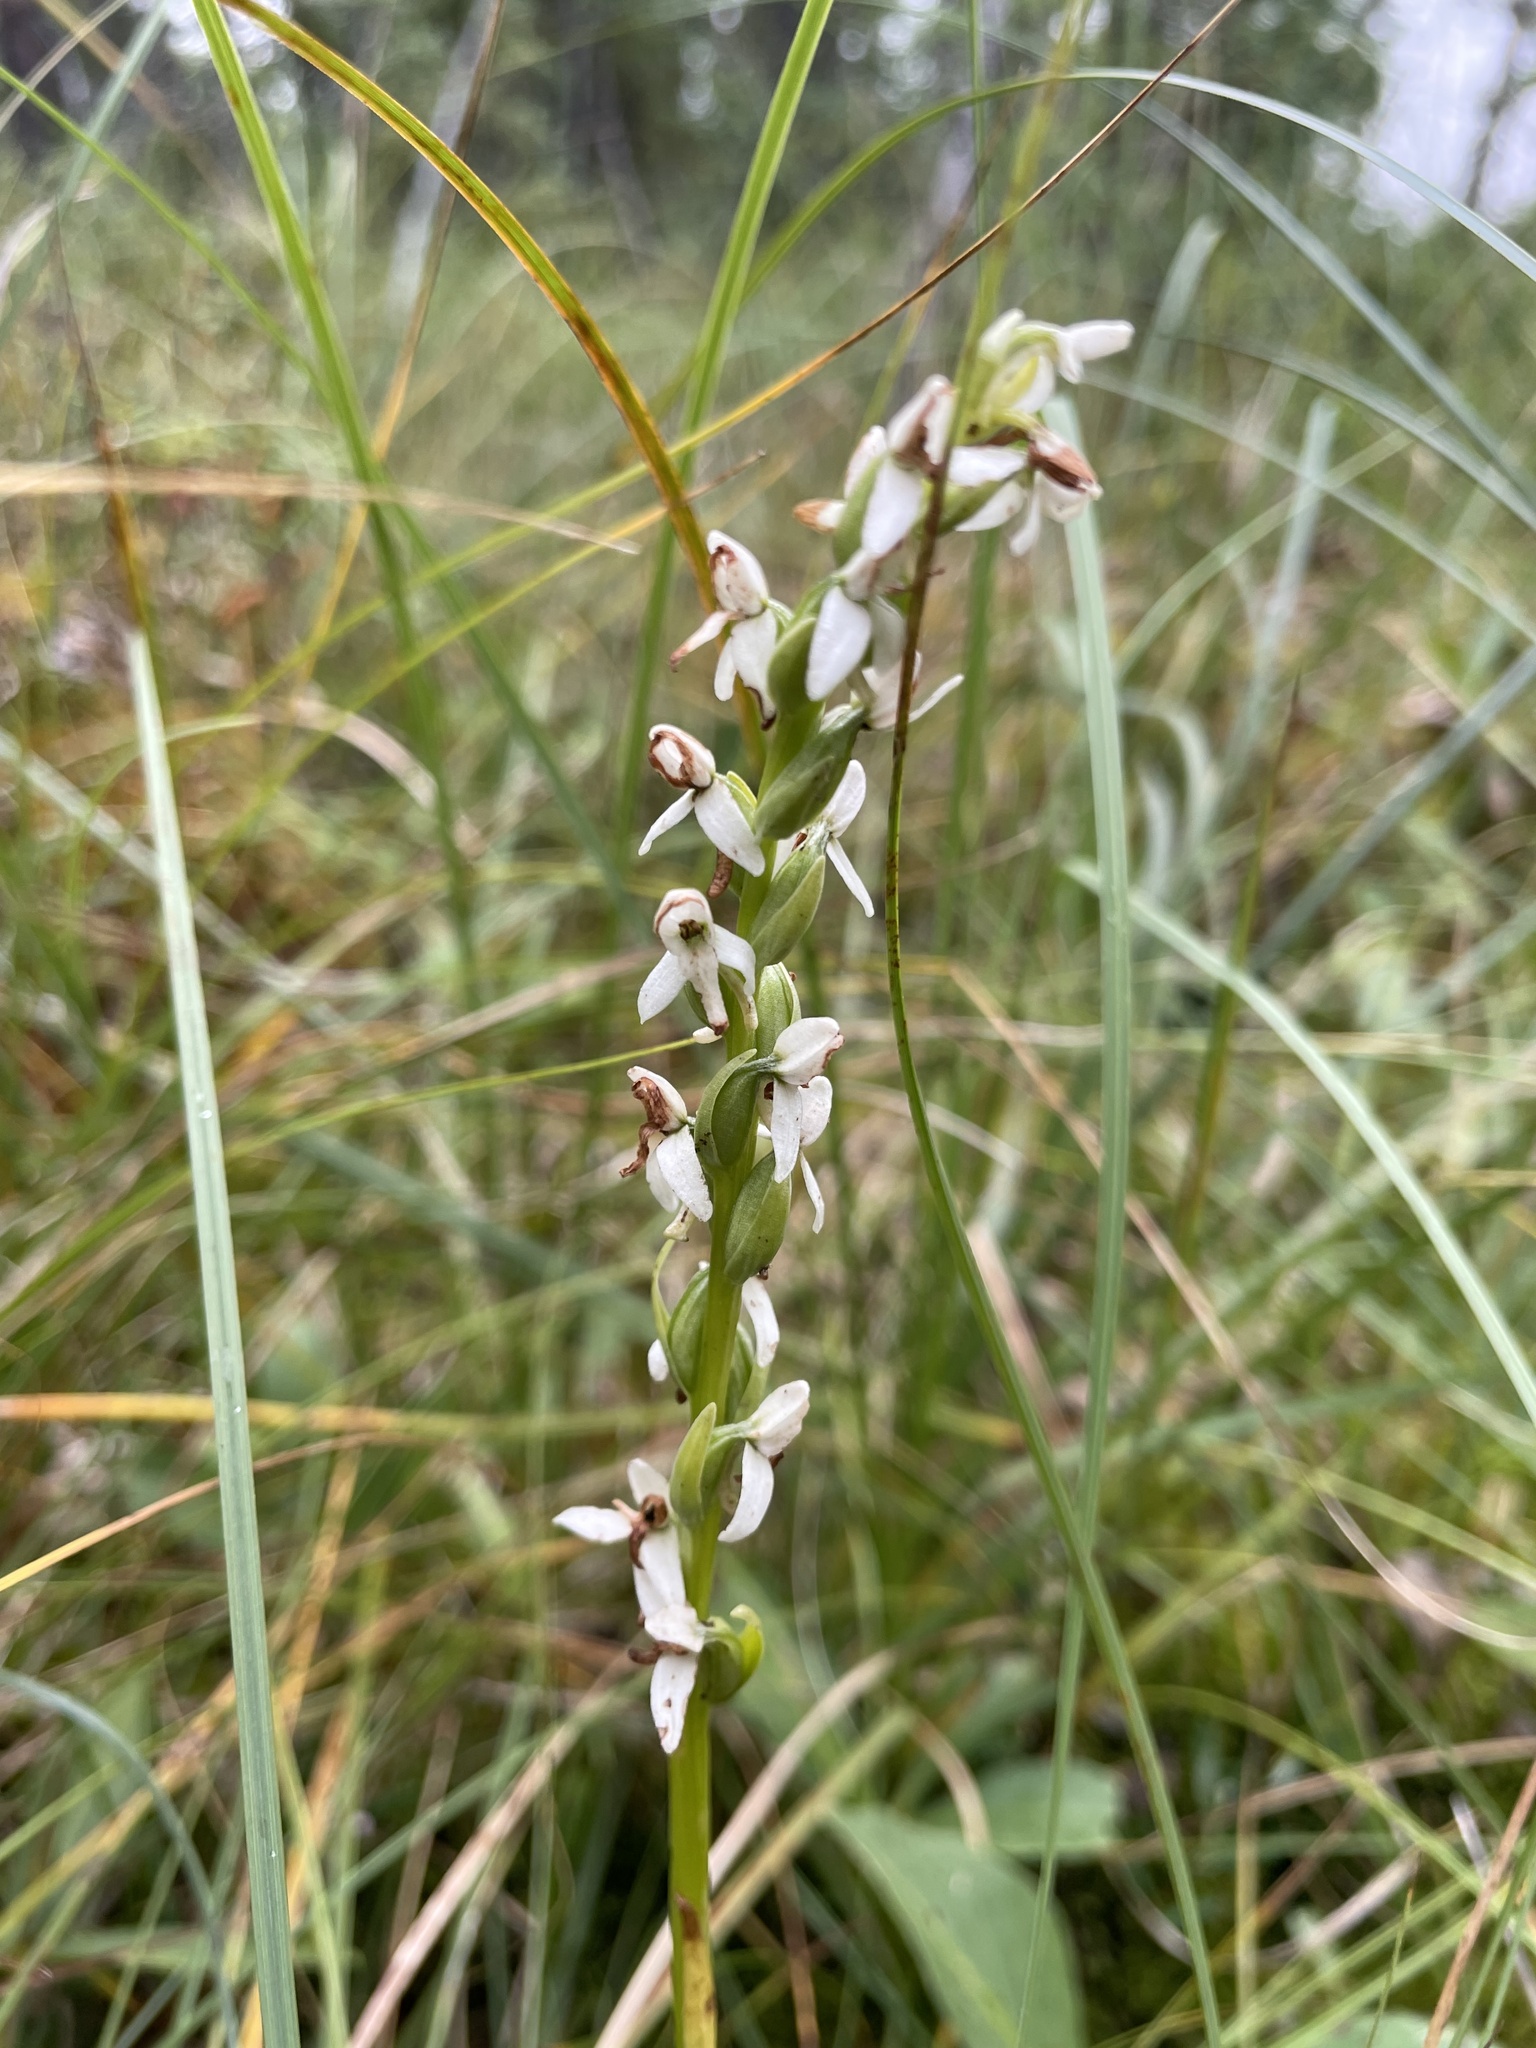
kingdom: Plantae
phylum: Tracheophyta
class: Liliopsida
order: Asparagales
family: Orchidaceae
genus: Platanthera
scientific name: Platanthera dilatata
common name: Bog candles
